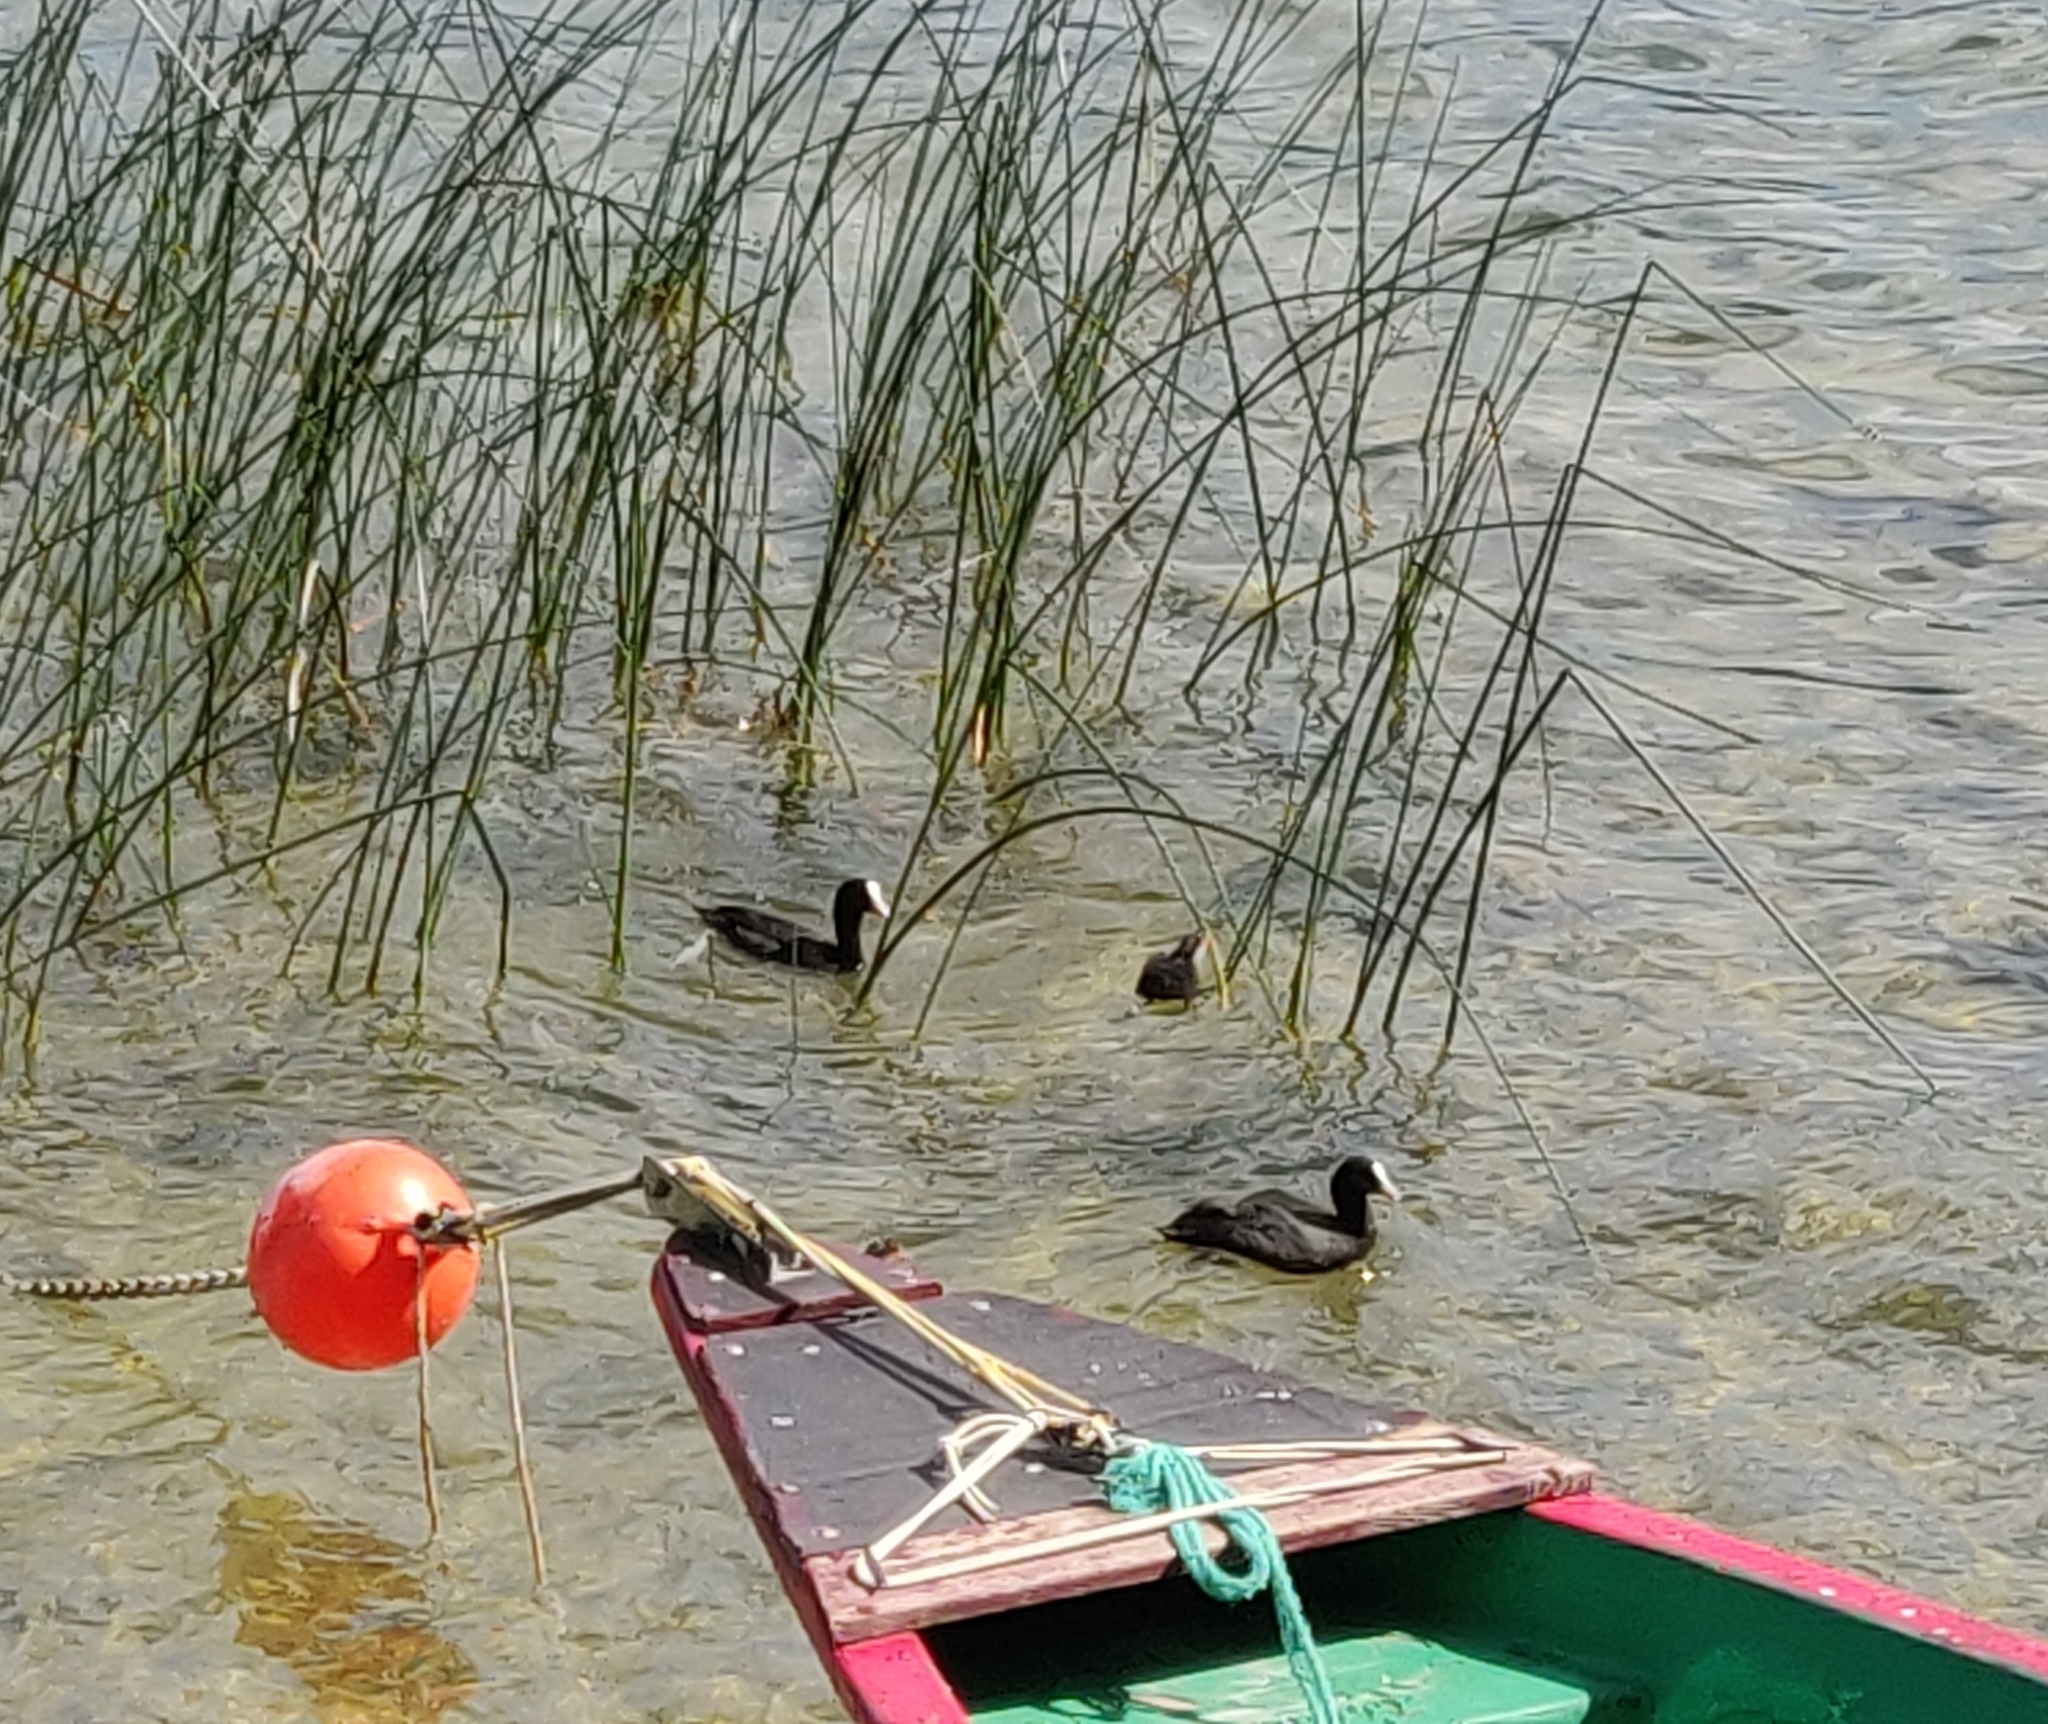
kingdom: Animalia
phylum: Chordata
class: Aves
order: Gruiformes
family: Rallidae
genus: Fulica
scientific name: Fulica atra
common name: Eurasian coot
